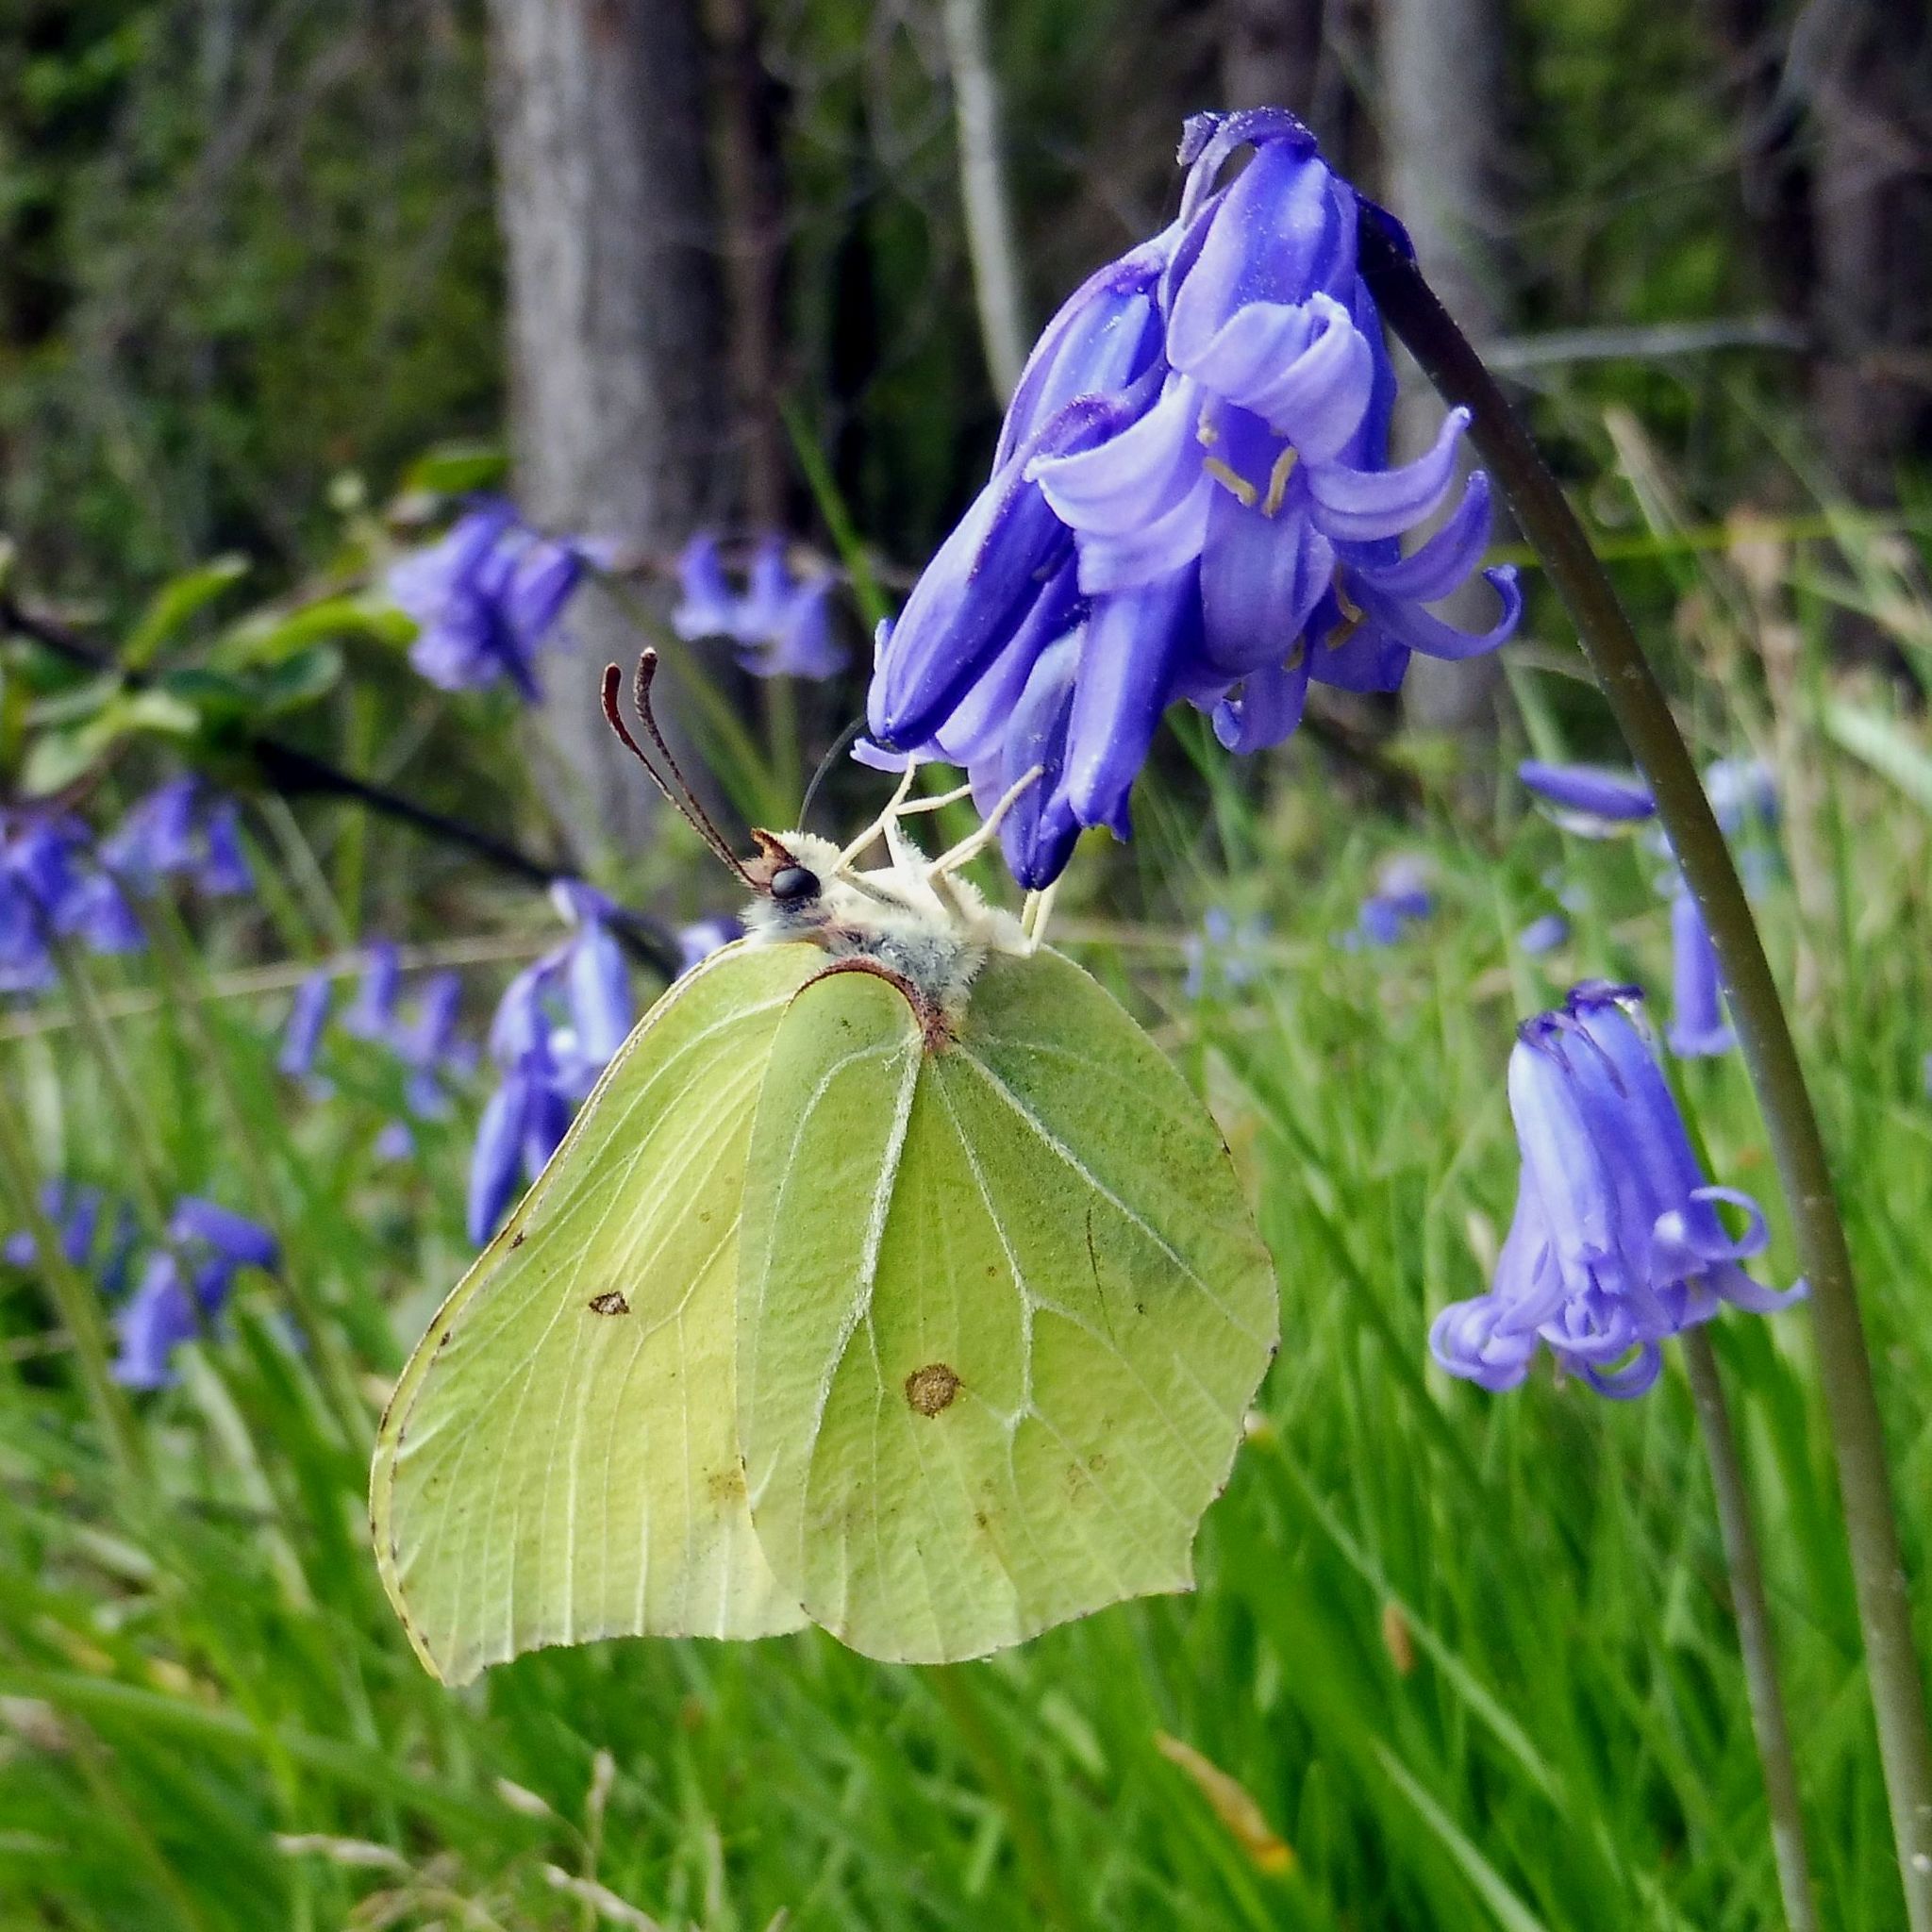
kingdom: Animalia
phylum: Arthropoda
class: Insecta
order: Lepidoptera
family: Pieridae
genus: Gonepteryx
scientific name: Gonepteryx rhamni
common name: Brimstone
